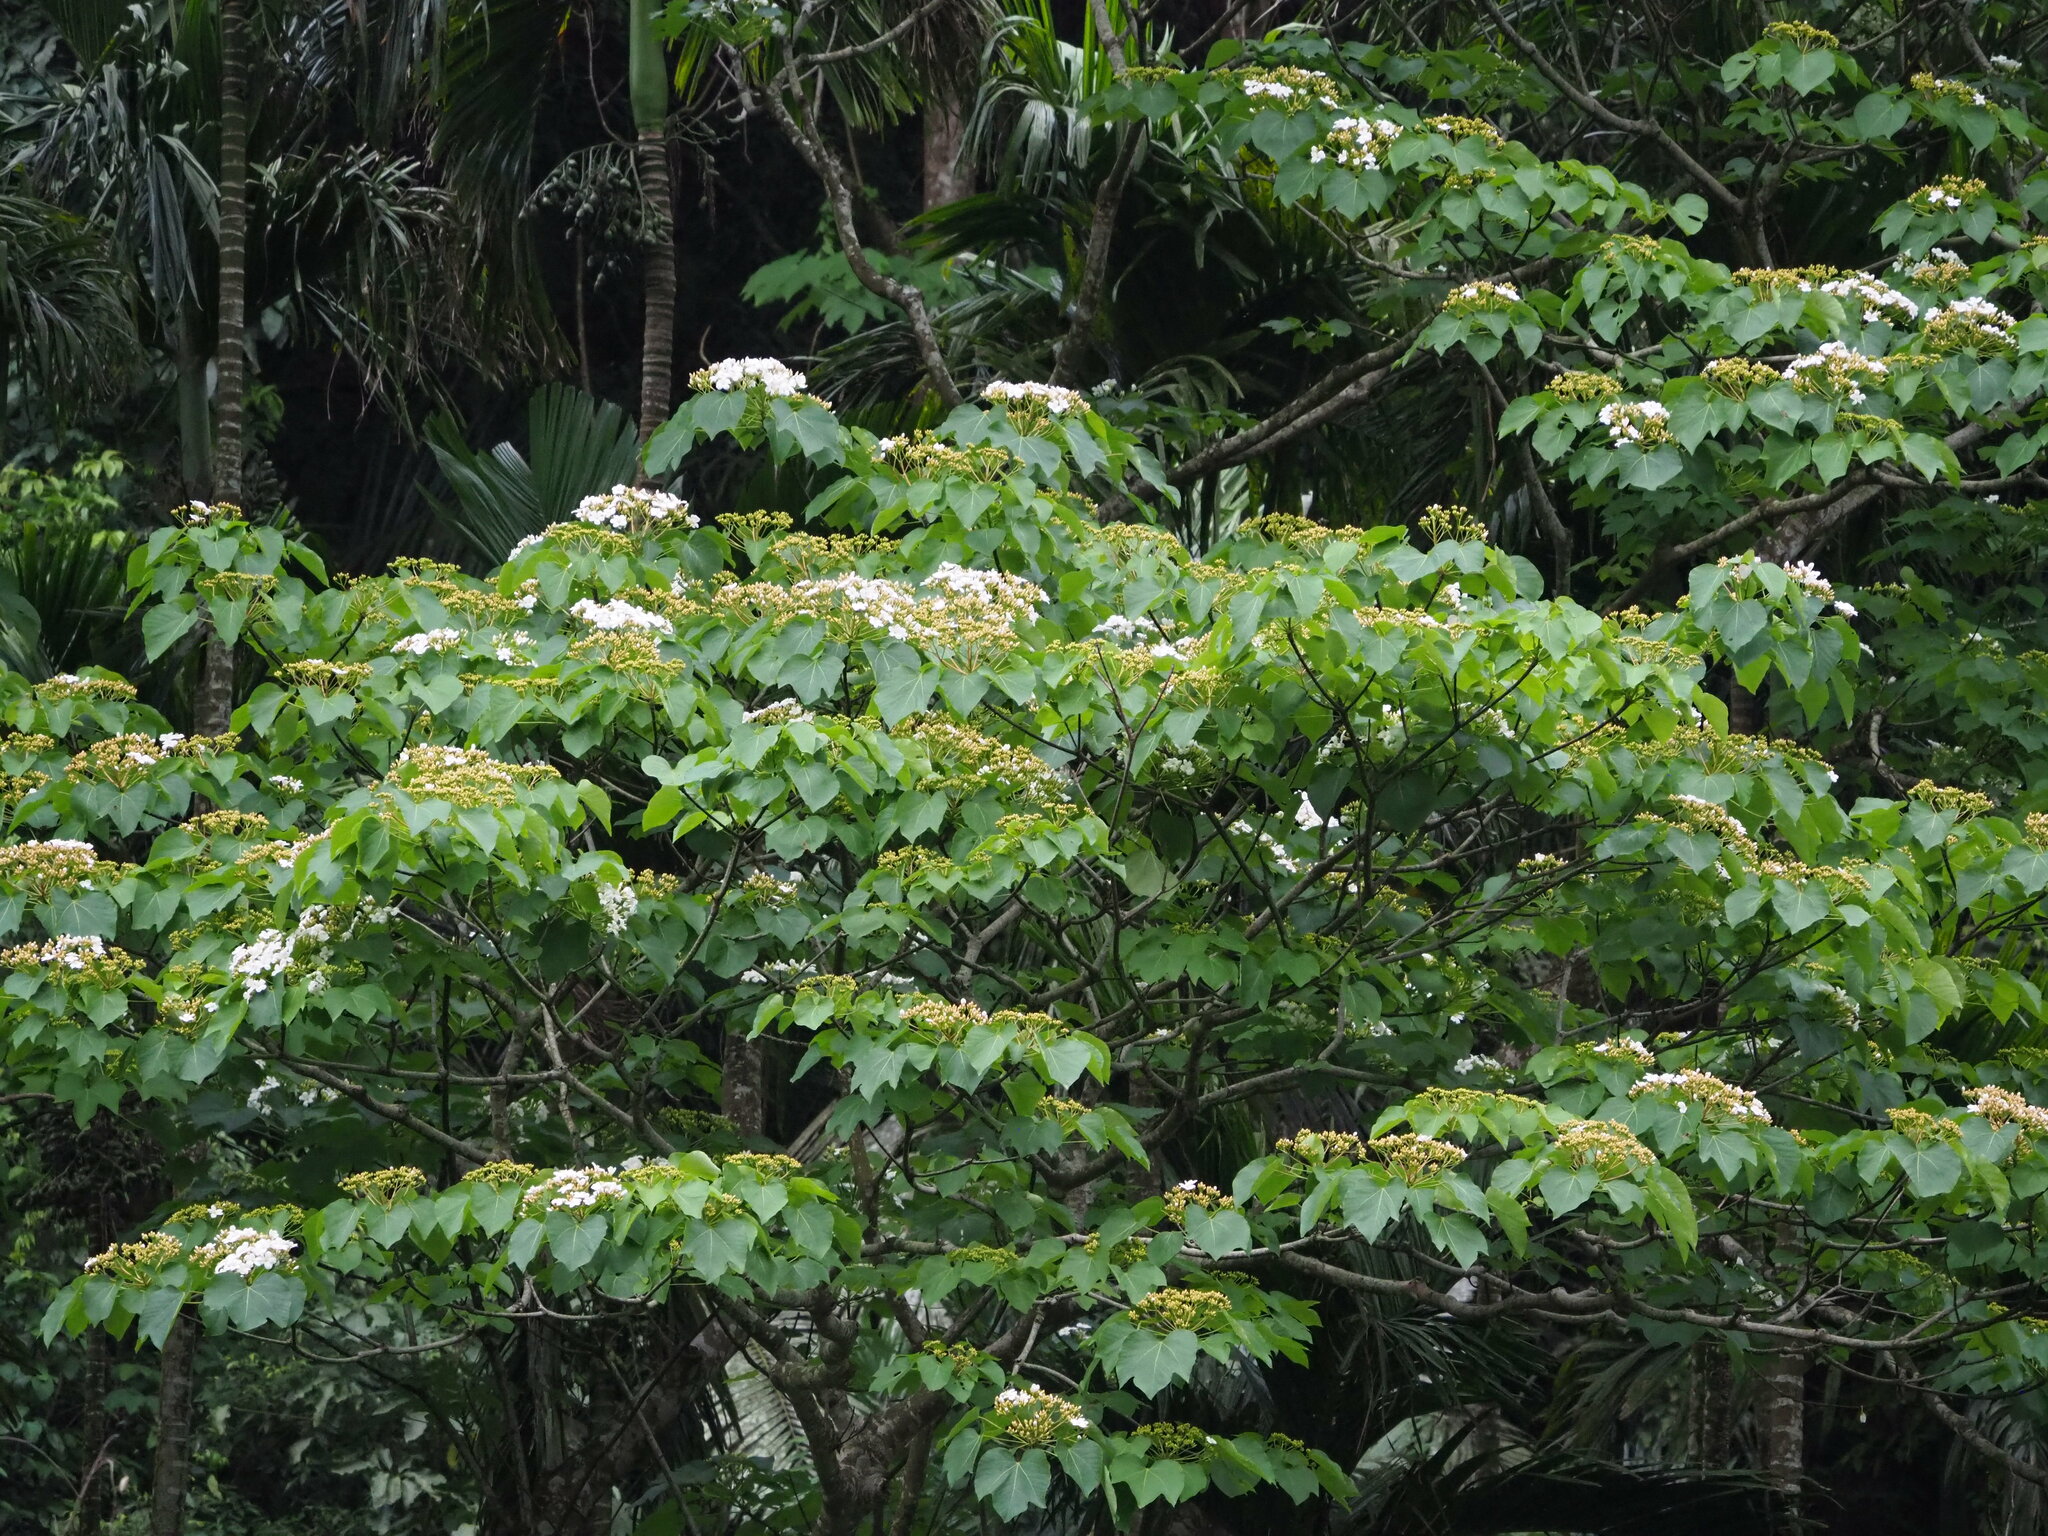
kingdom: Plantae
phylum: Tracheophyta
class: Magnoliopsida
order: Malpighiales
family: Euphorbiaceae
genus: Vernicia
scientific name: Vernicia montana
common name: Mu oil tree
